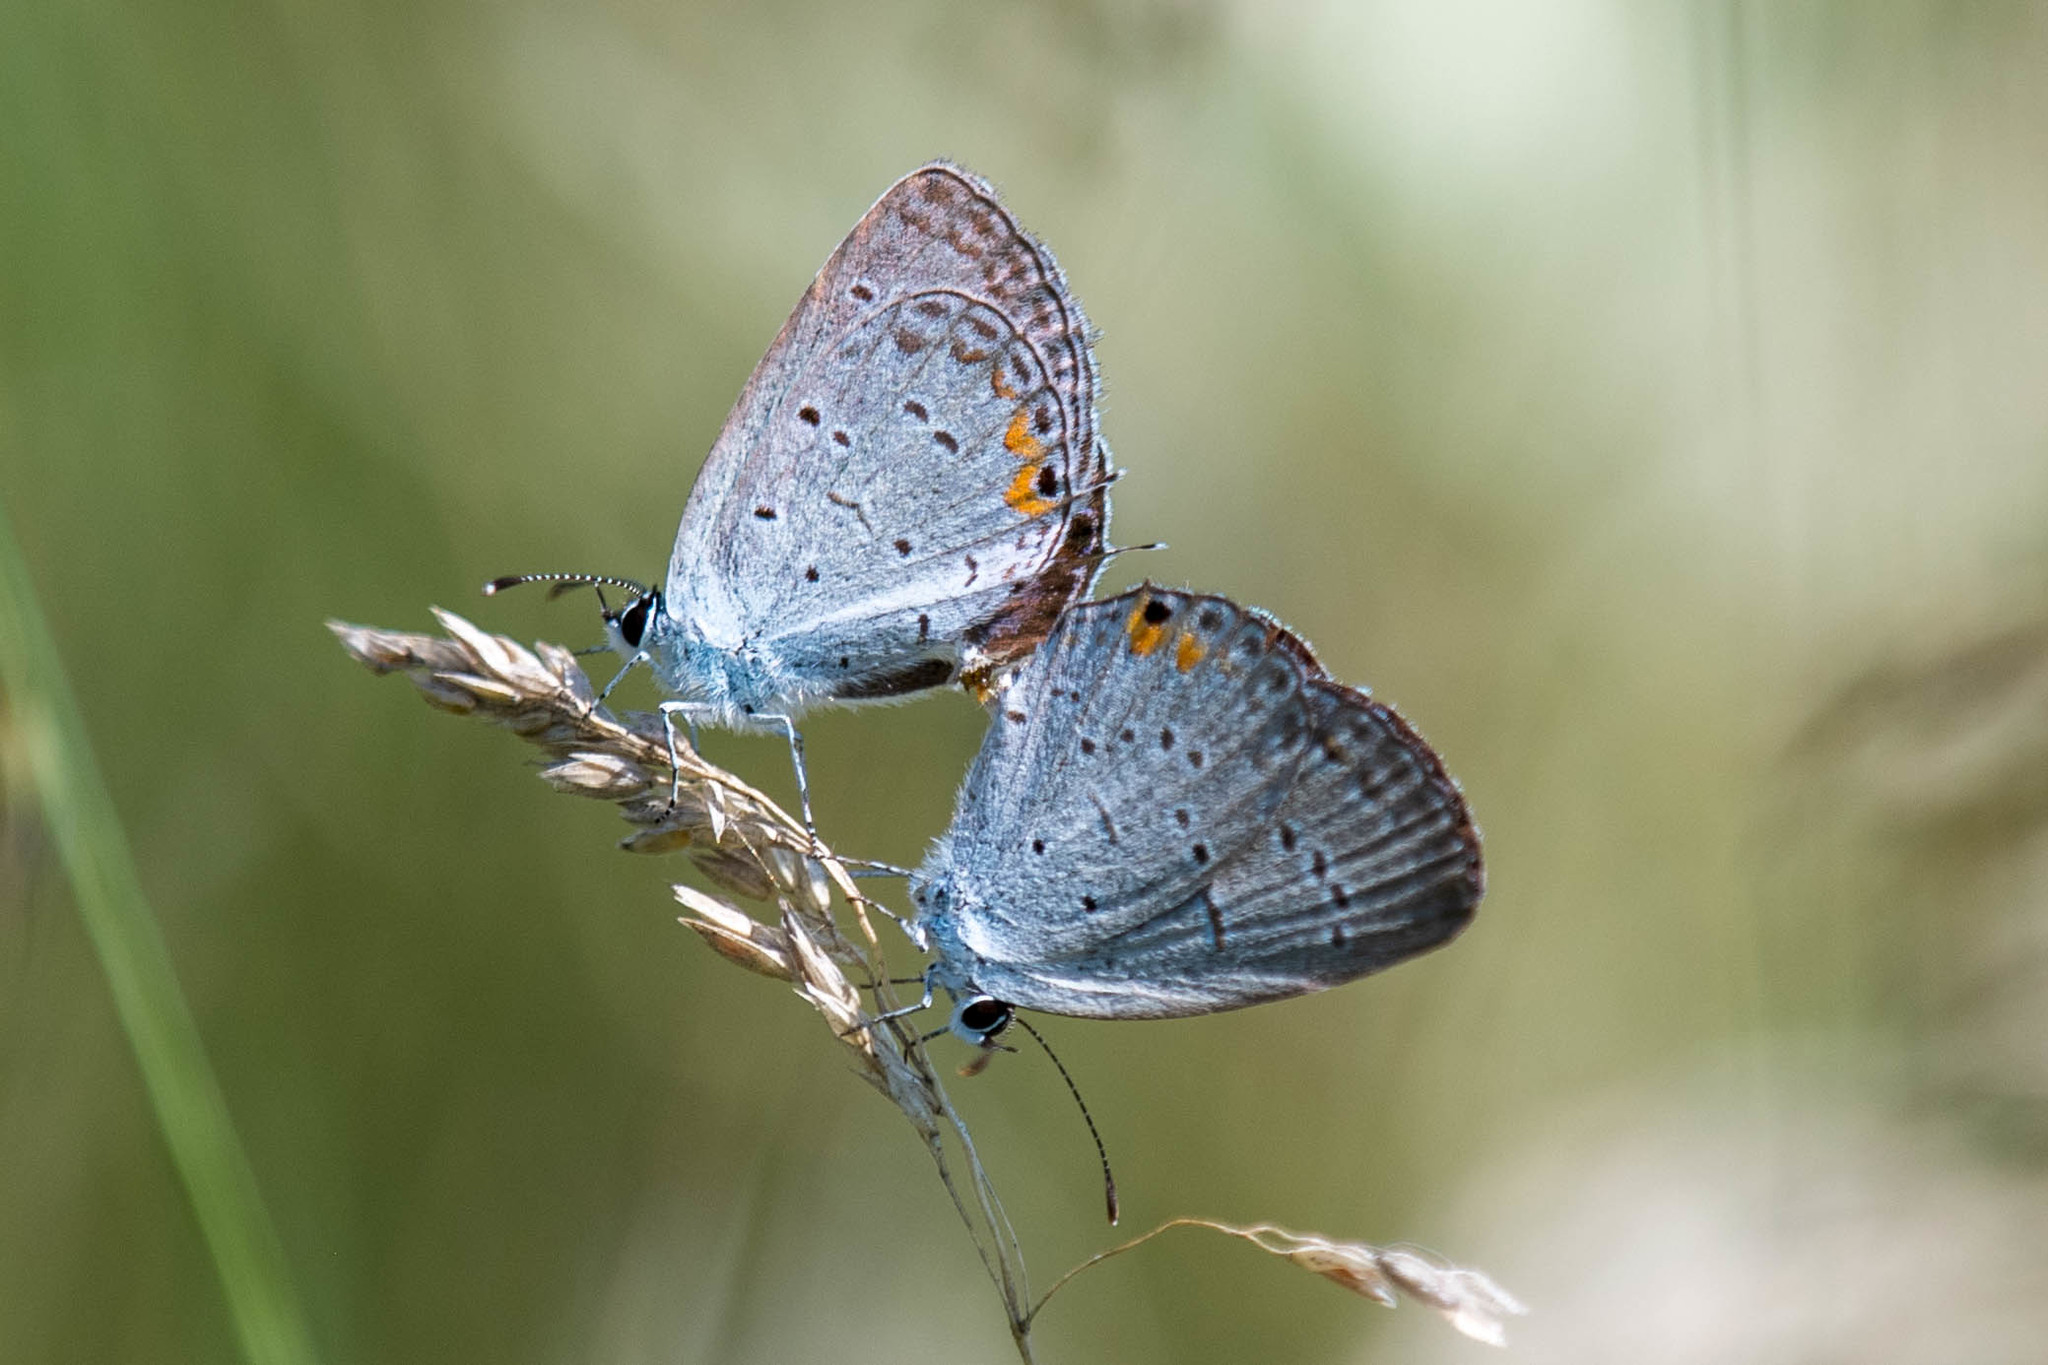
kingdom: Animalia
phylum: Arthropoda
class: Insecta
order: Lepidoptera
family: Lycaenidae
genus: Elkalyce
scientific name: Elkalyce comyntas
